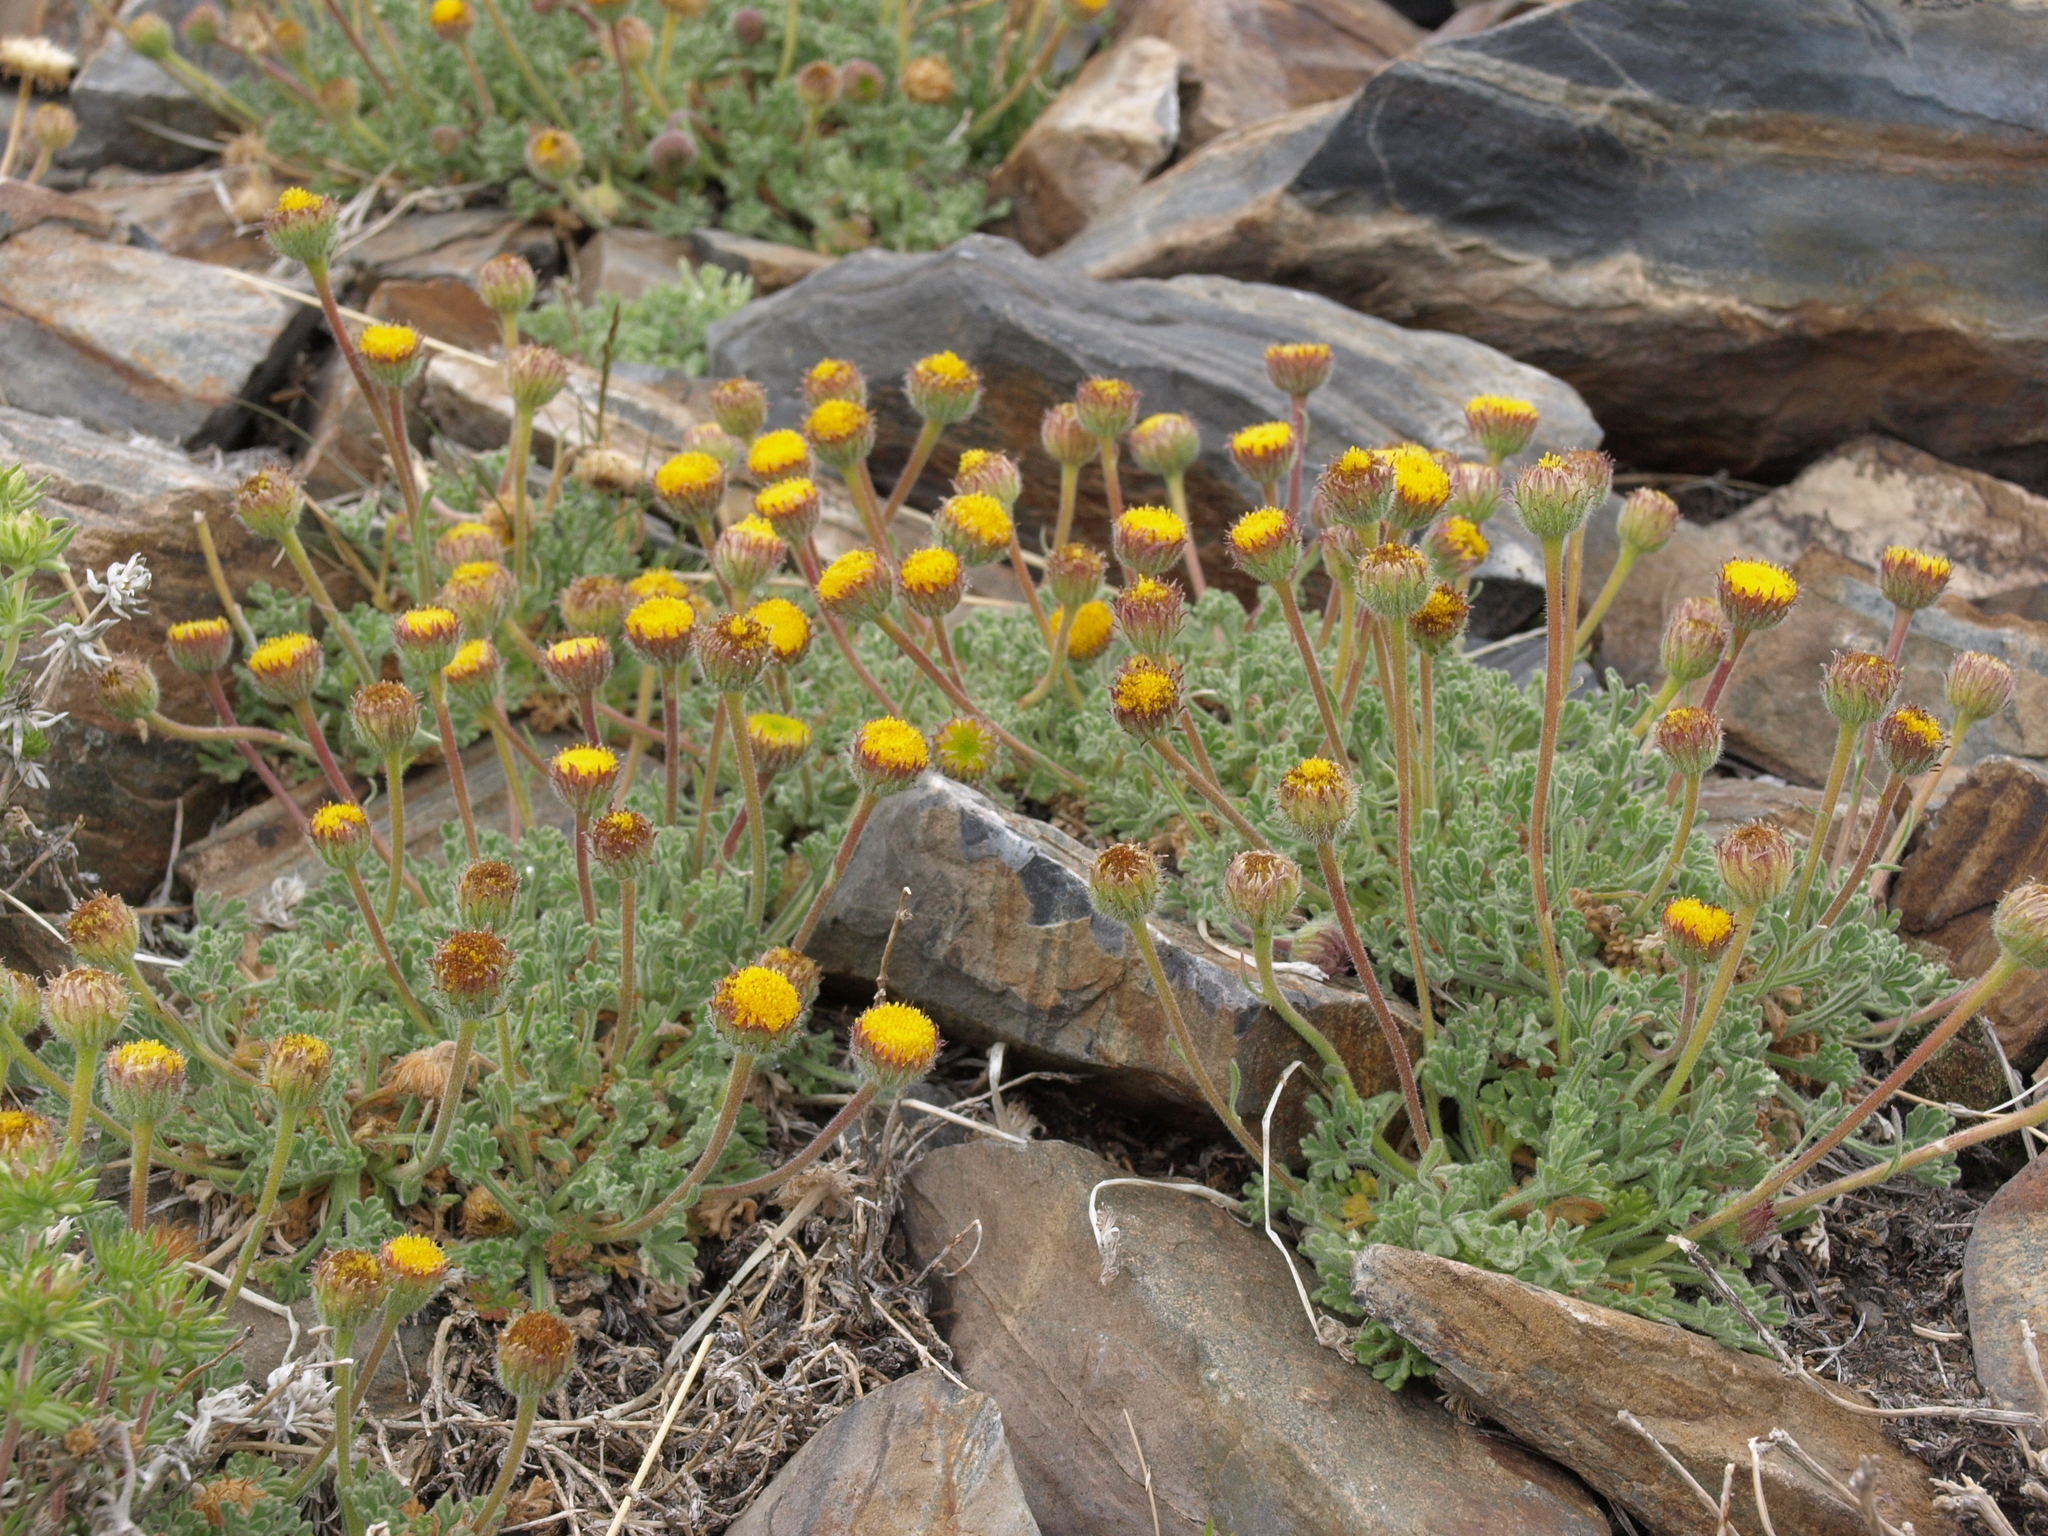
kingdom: Plantae
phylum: Tracheophyta
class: Magnoliopsida
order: Asterales
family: Asteraceae
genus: Erigeron
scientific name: Erigeron compositus
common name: Dwarf mountain fleabane
